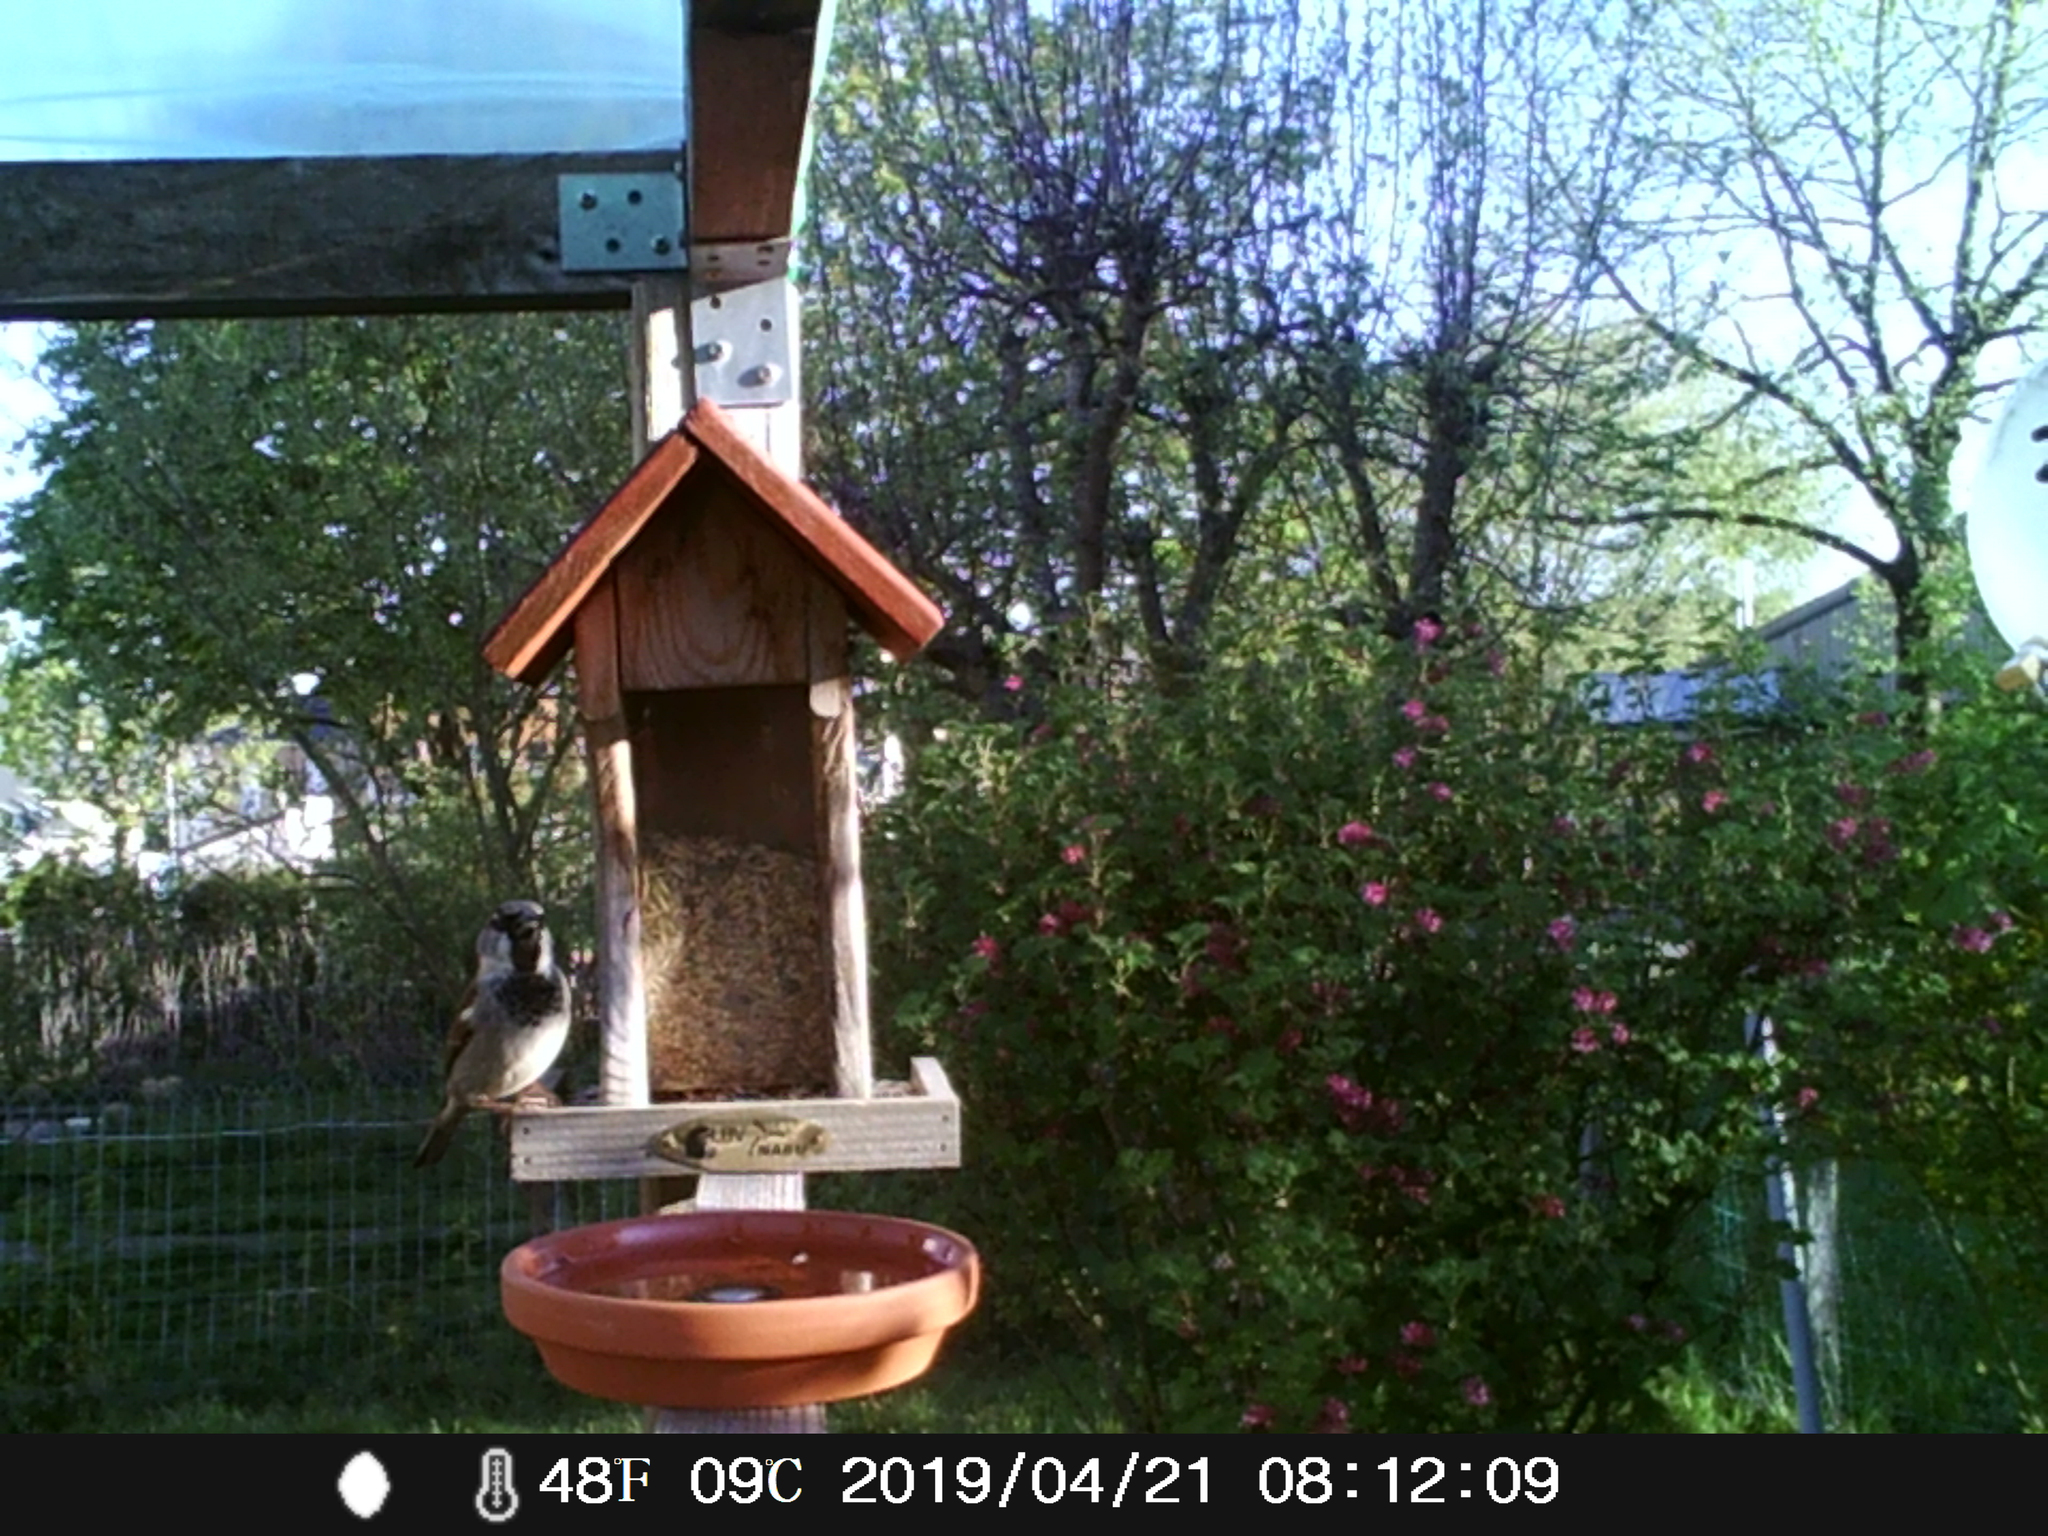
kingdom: Animalia
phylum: Chordata
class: Aves
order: Passeriformes
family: Passeridae
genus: Passer
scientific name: Passer domesticus
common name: House sparrow
